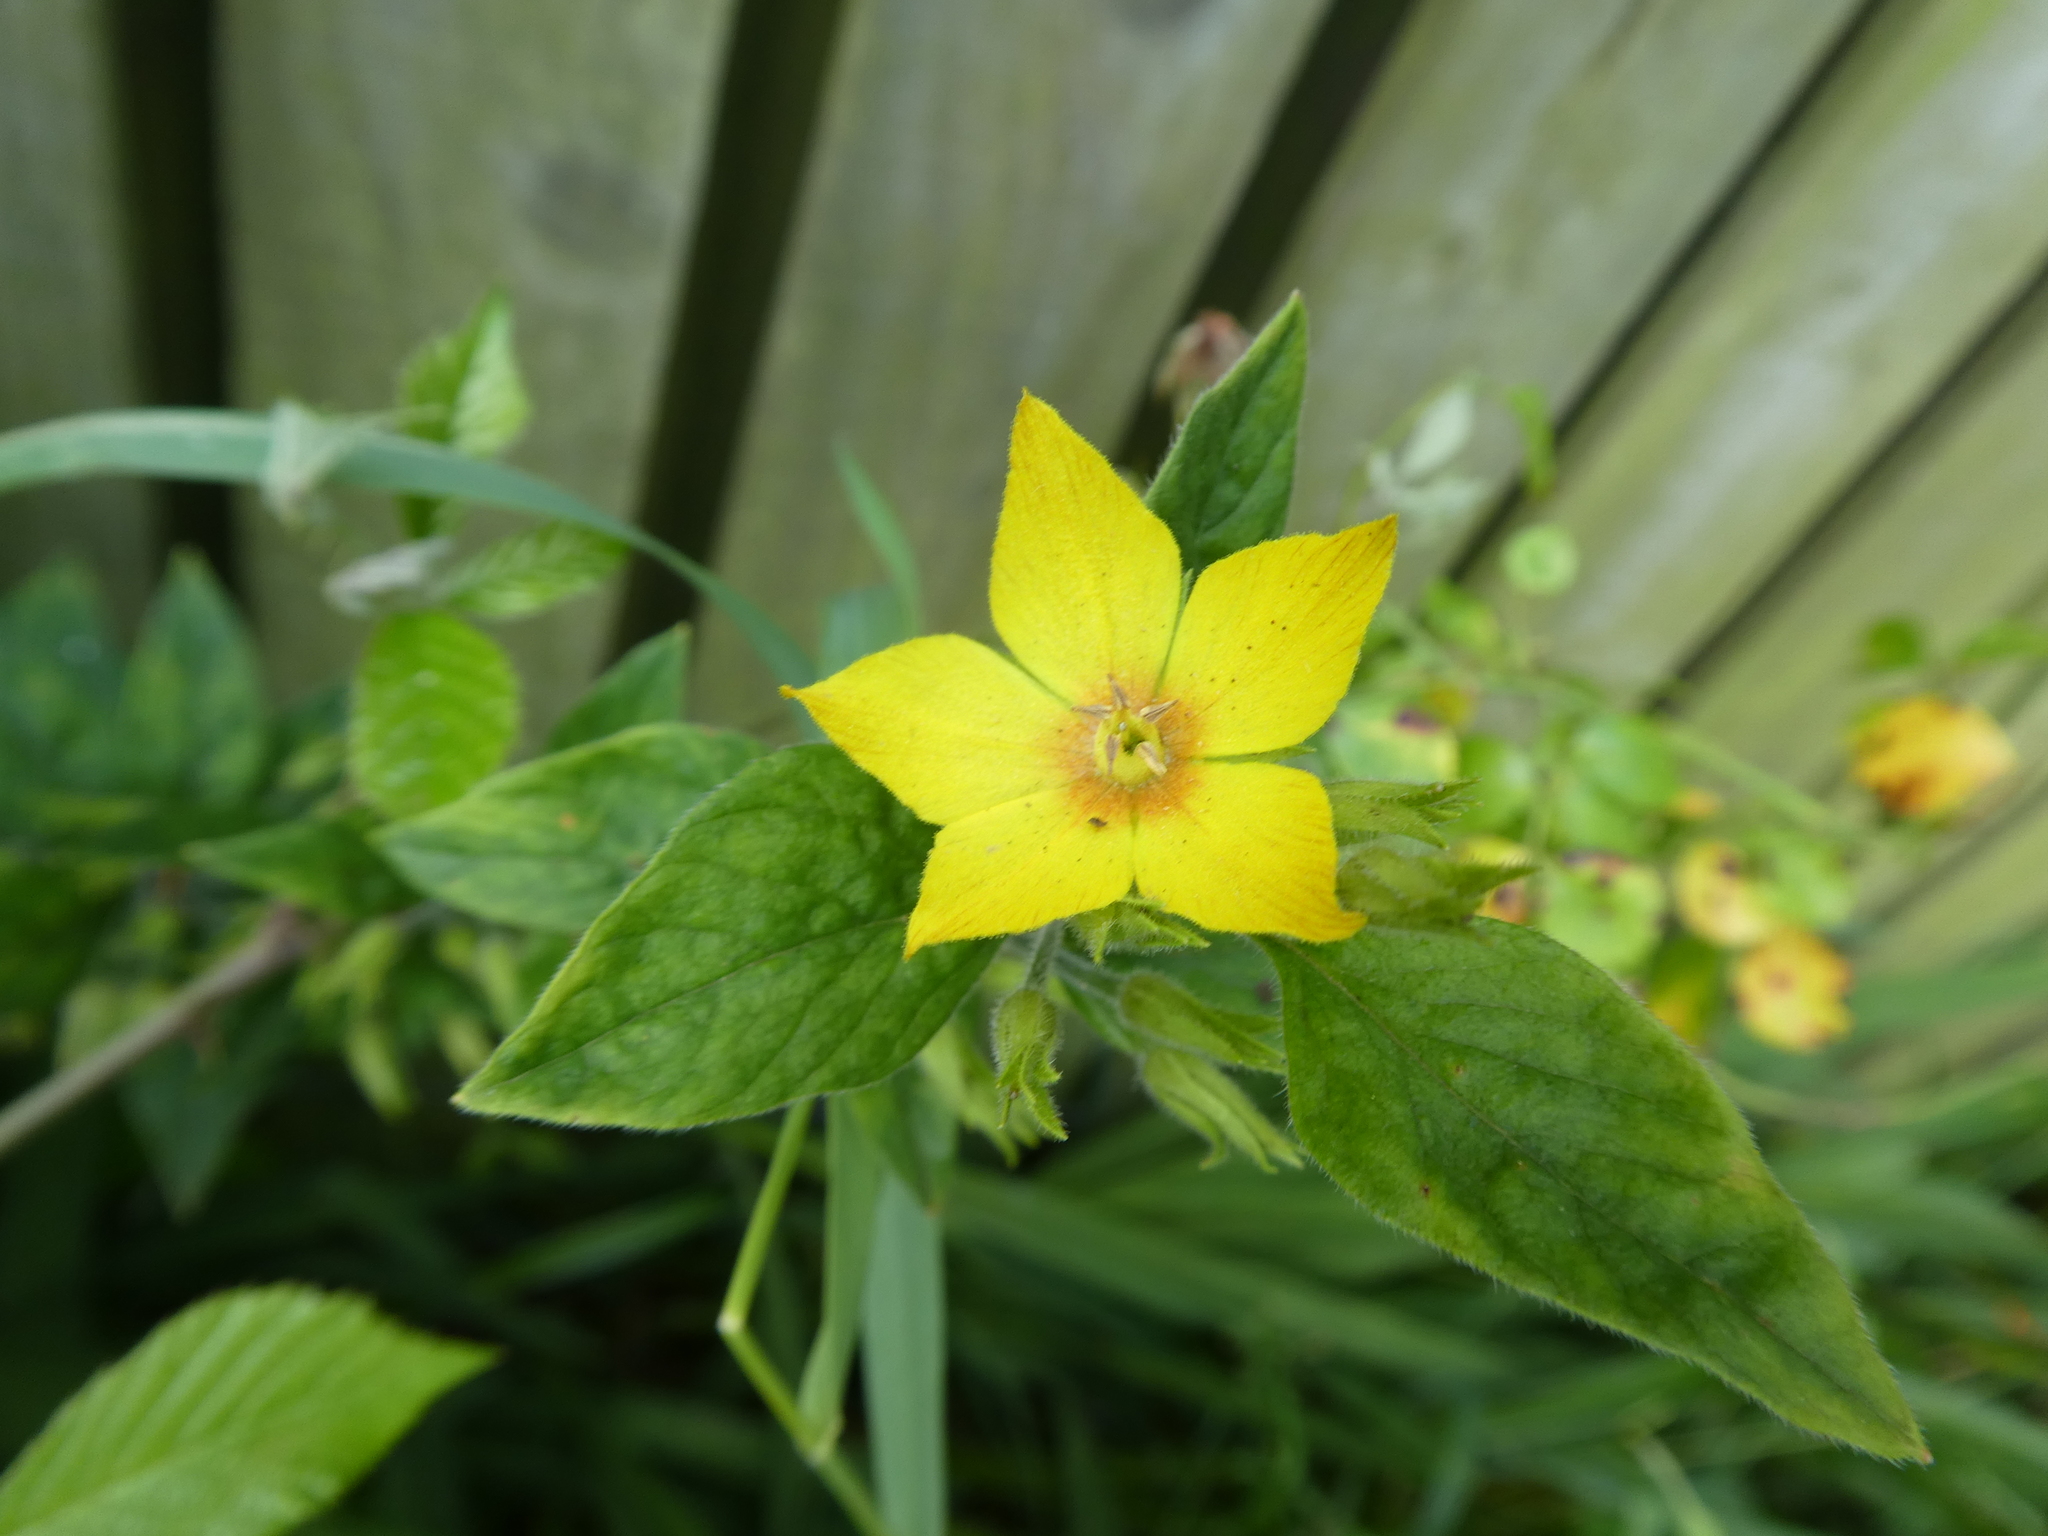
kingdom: Plantae
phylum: Tracheophyta
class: Magnoliopsida
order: Ericales
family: Primulaceae
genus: Lysimachia
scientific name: Lysimachia punctata
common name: Dotted loosestrife
